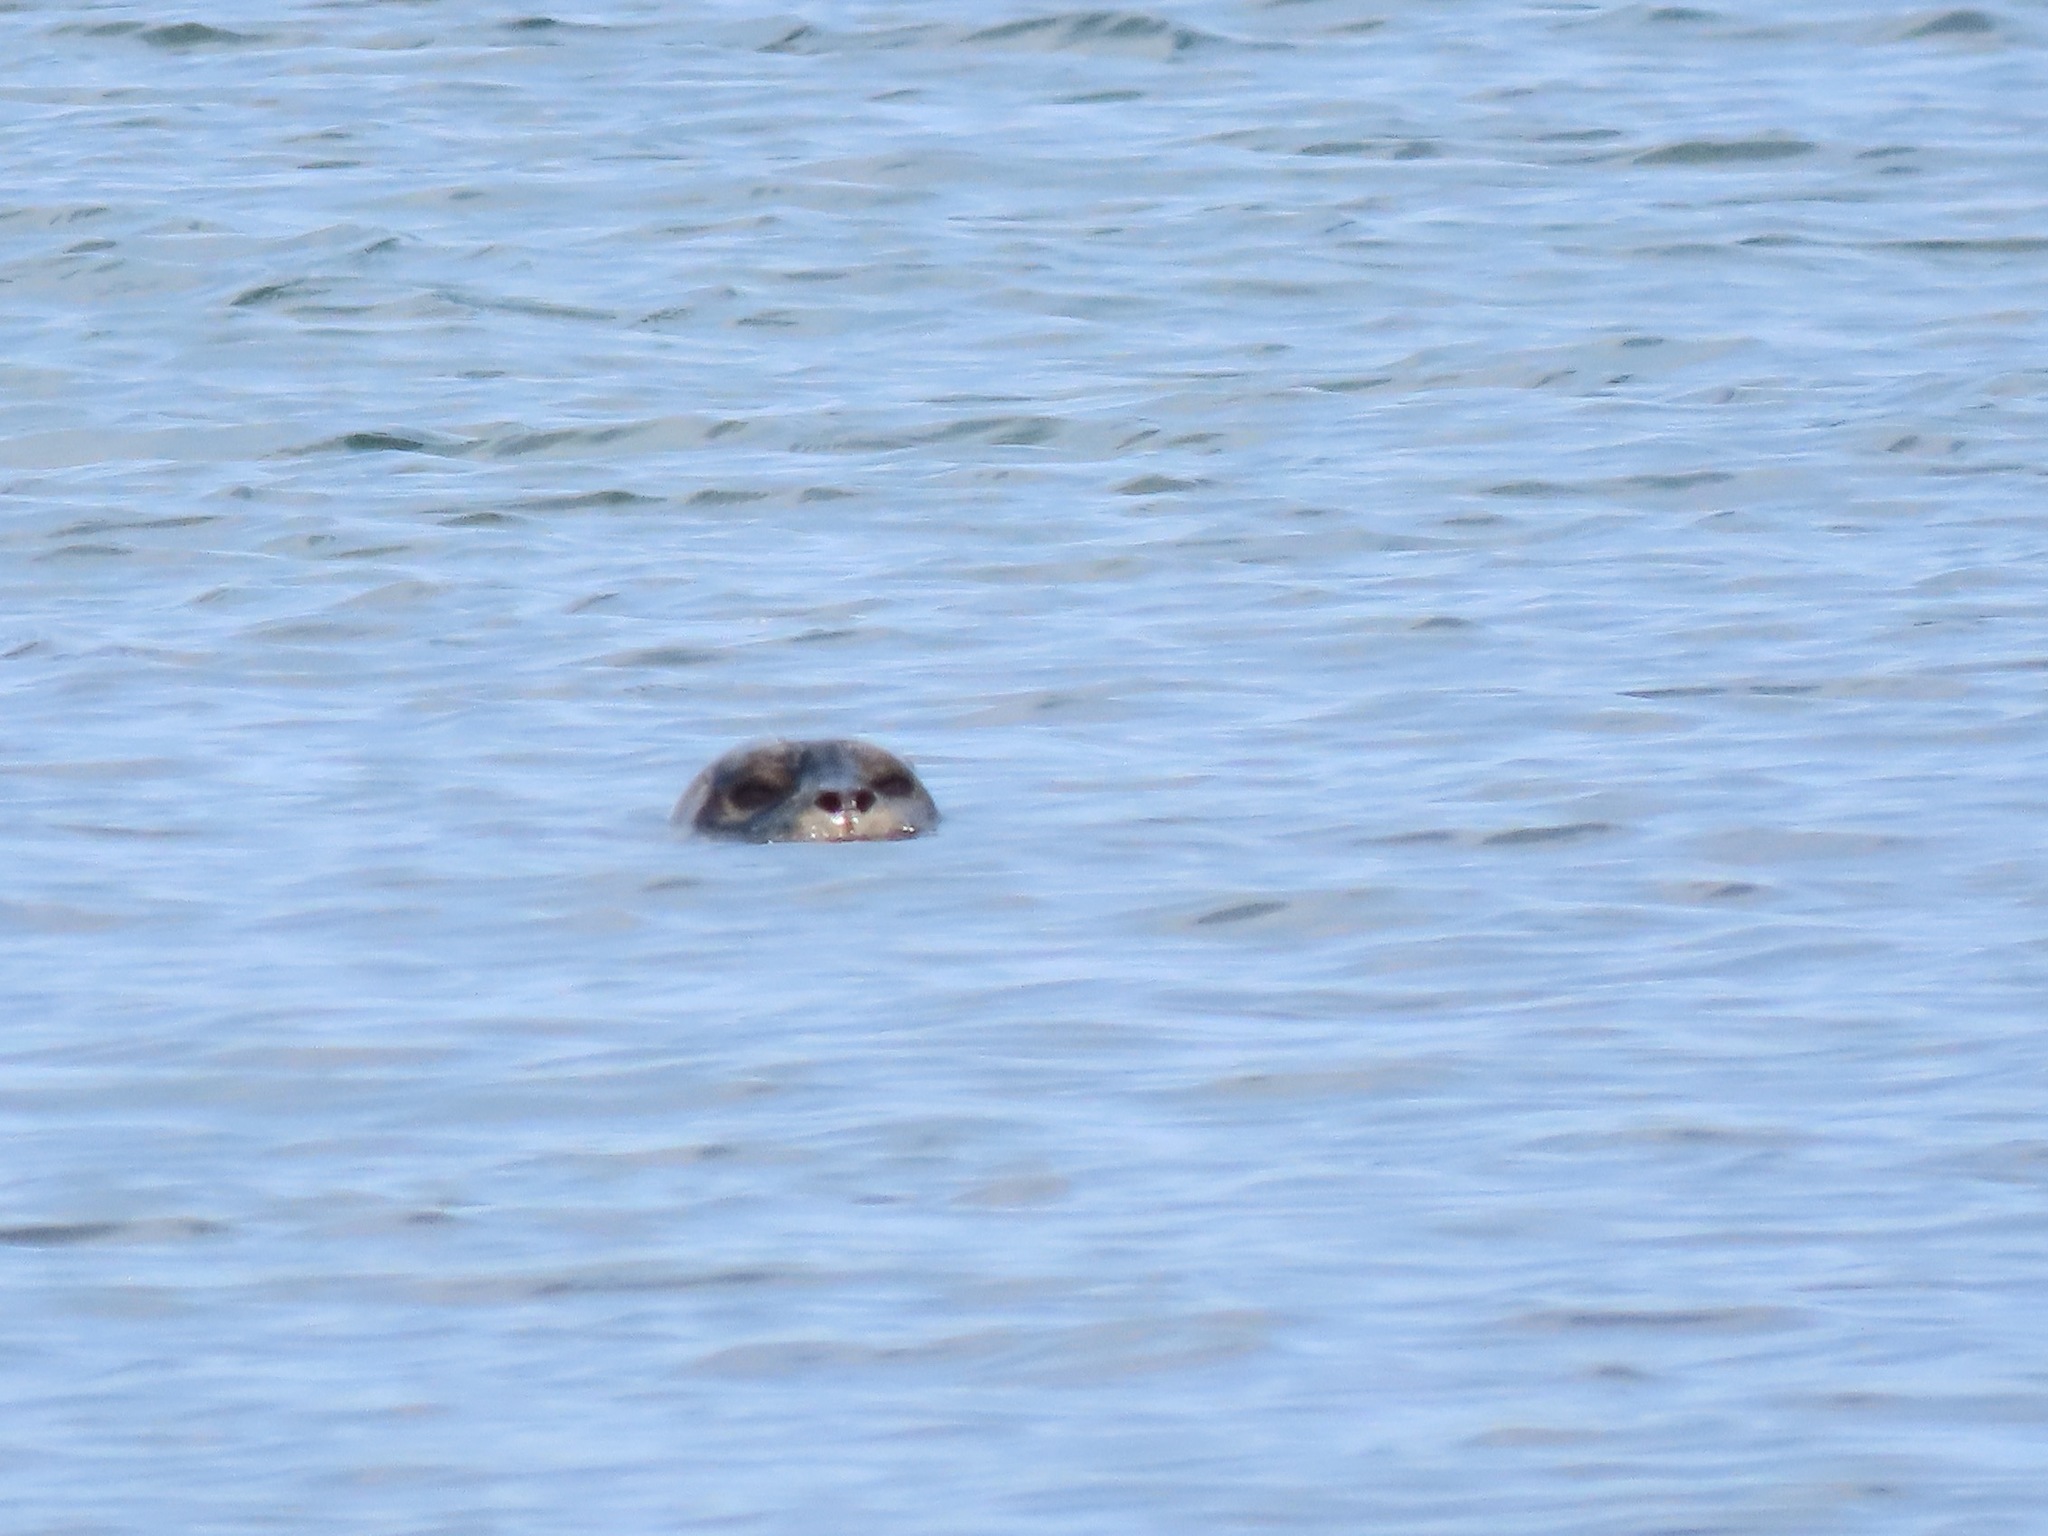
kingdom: Animalia
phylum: Chordata
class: Mammalia
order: Carnivora
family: Phocidae
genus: Phoca
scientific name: Phoca vitulina
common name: Harbor seal
